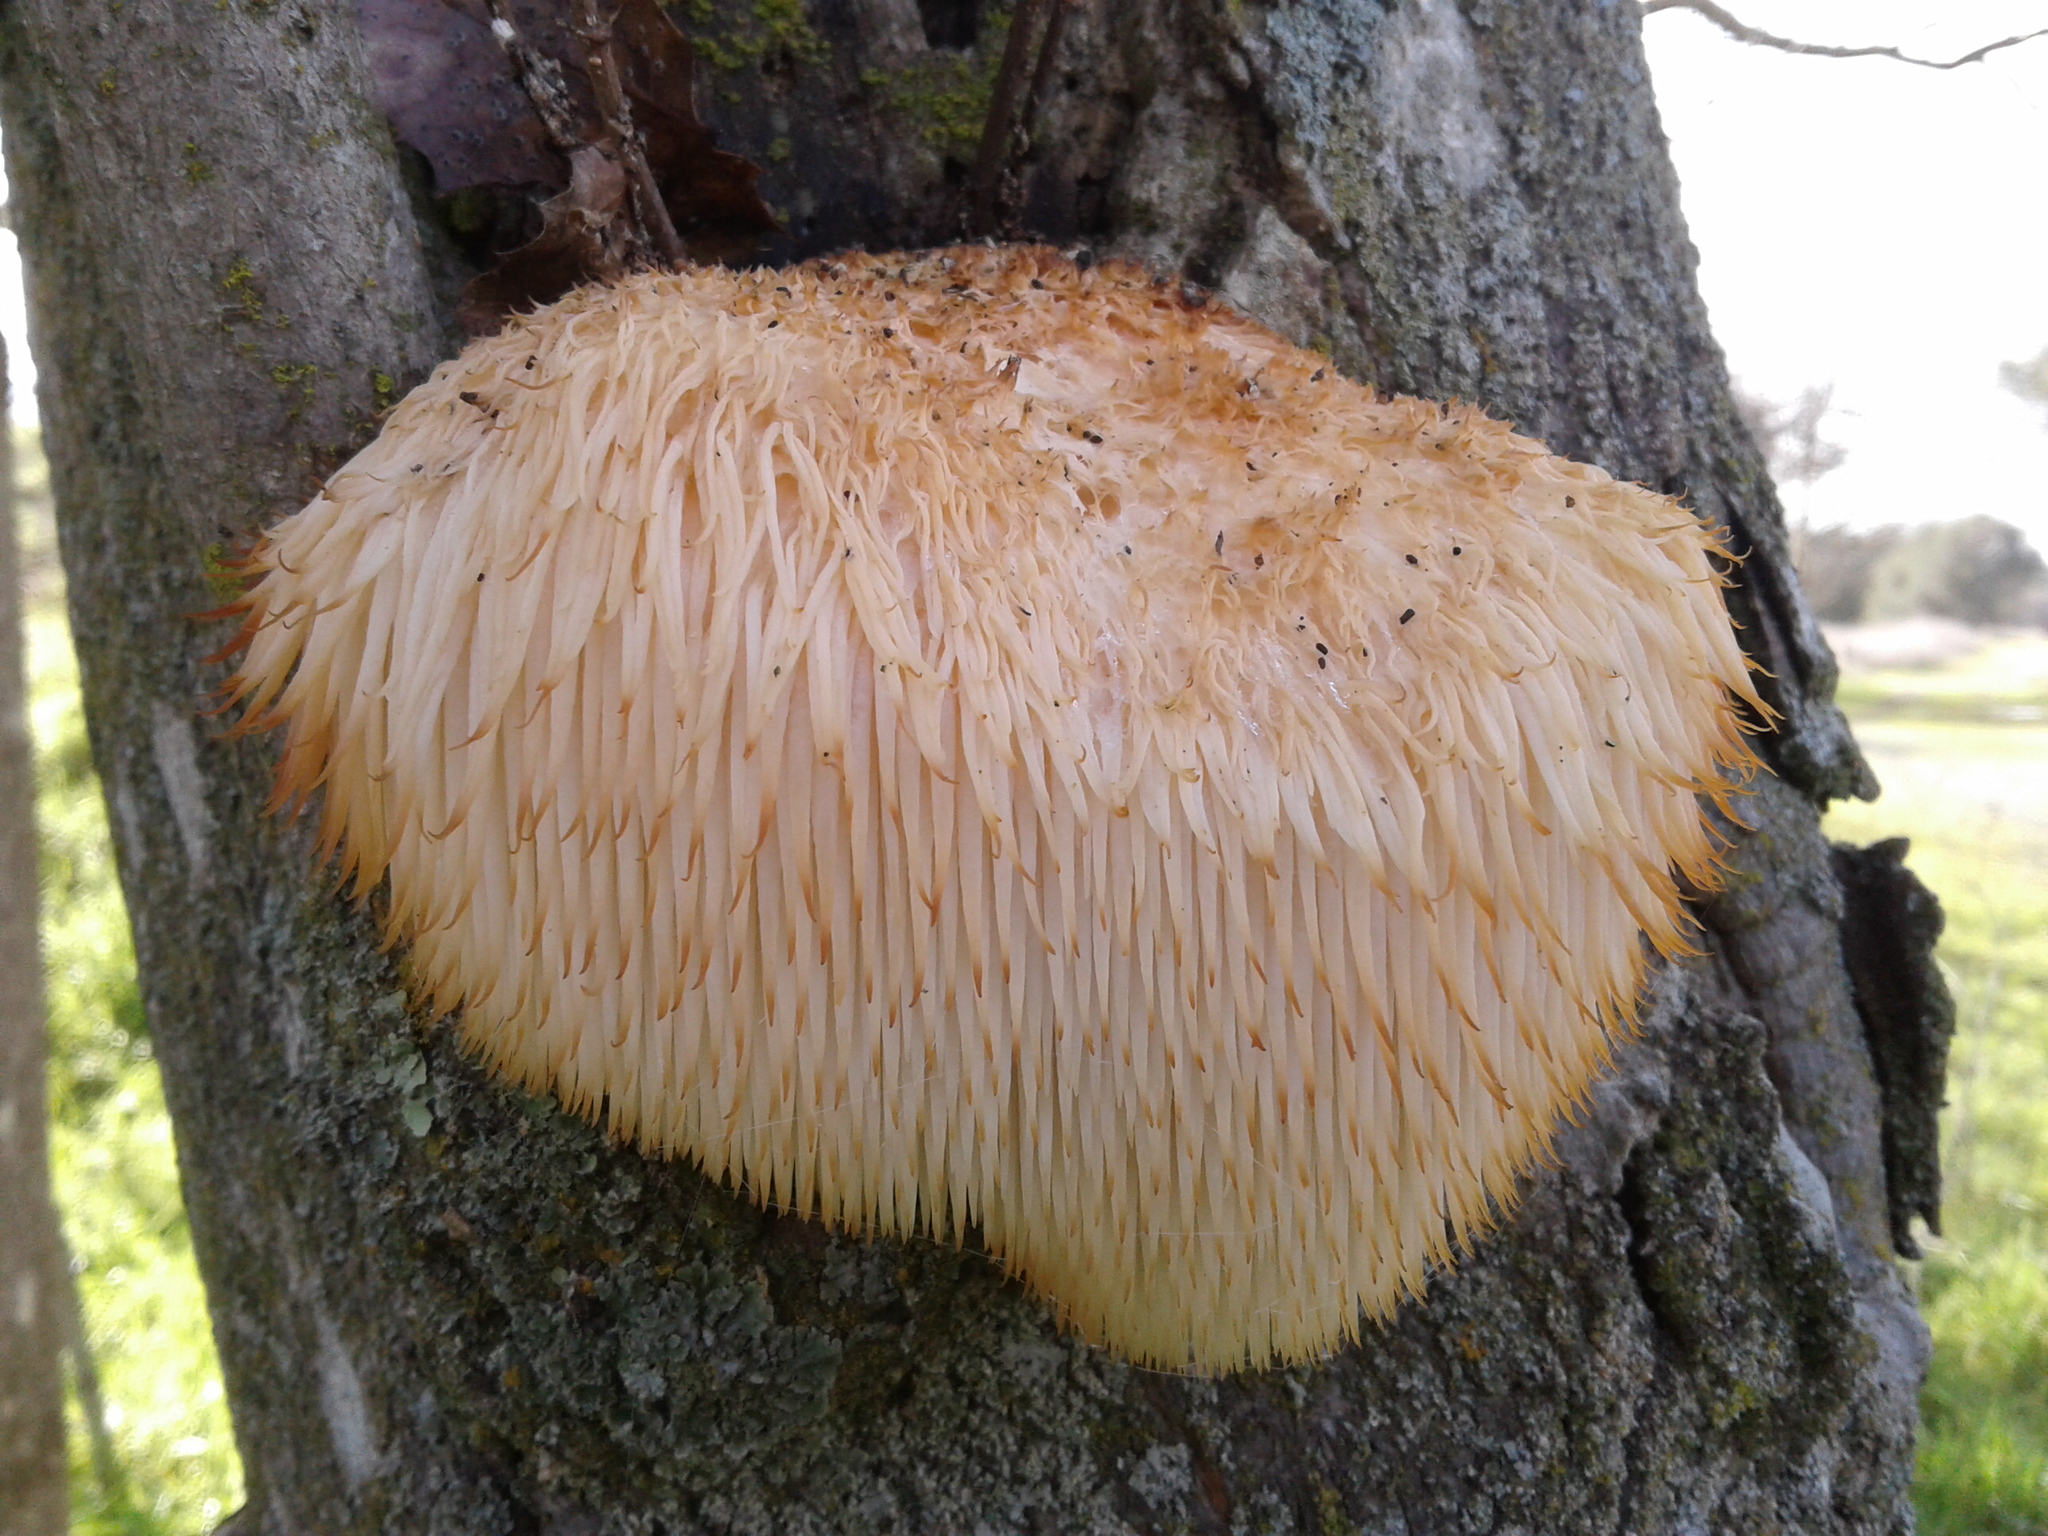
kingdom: Fungi
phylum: Basidiomycota
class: Agaricomycetes
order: Russulales
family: Hericiaceae
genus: Hericium
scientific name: Hericium erinaceus
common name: Bearded tooth
